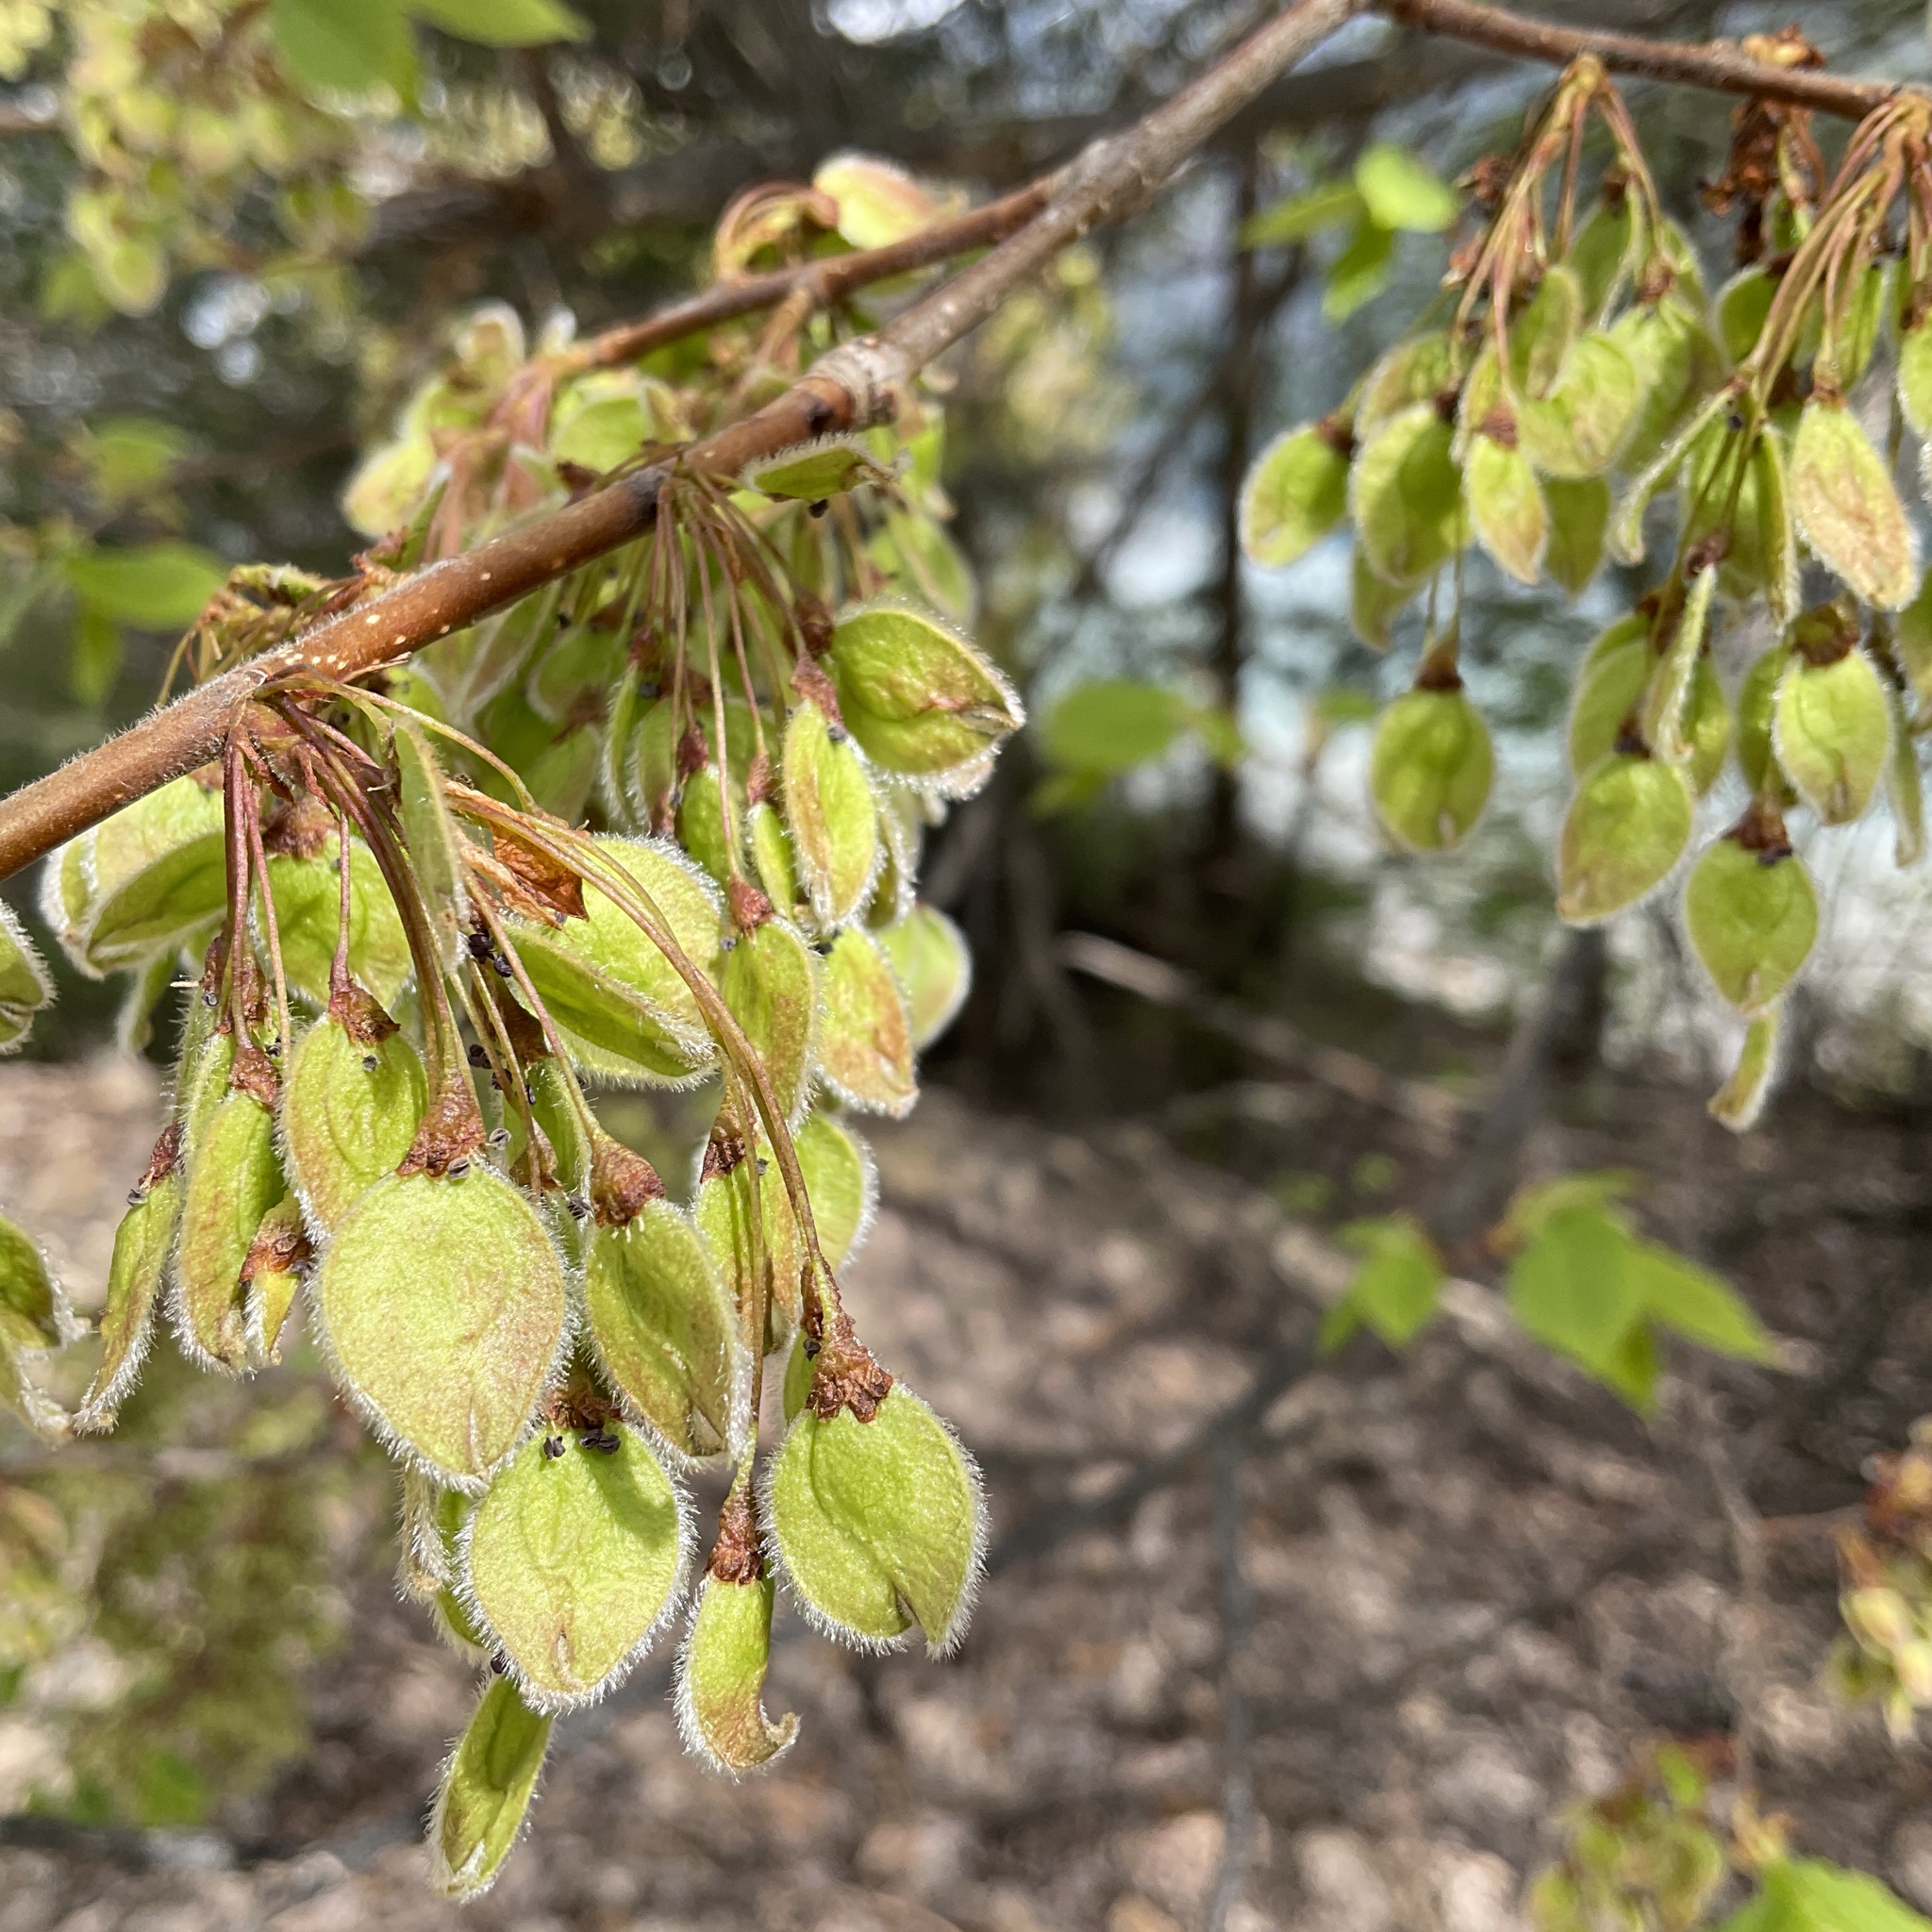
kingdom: Plantae
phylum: Tracheophyta
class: Magnoliopsida
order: Rosales
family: Ulmaceae
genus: Ulmus
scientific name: Ulmus americana
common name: American elm
